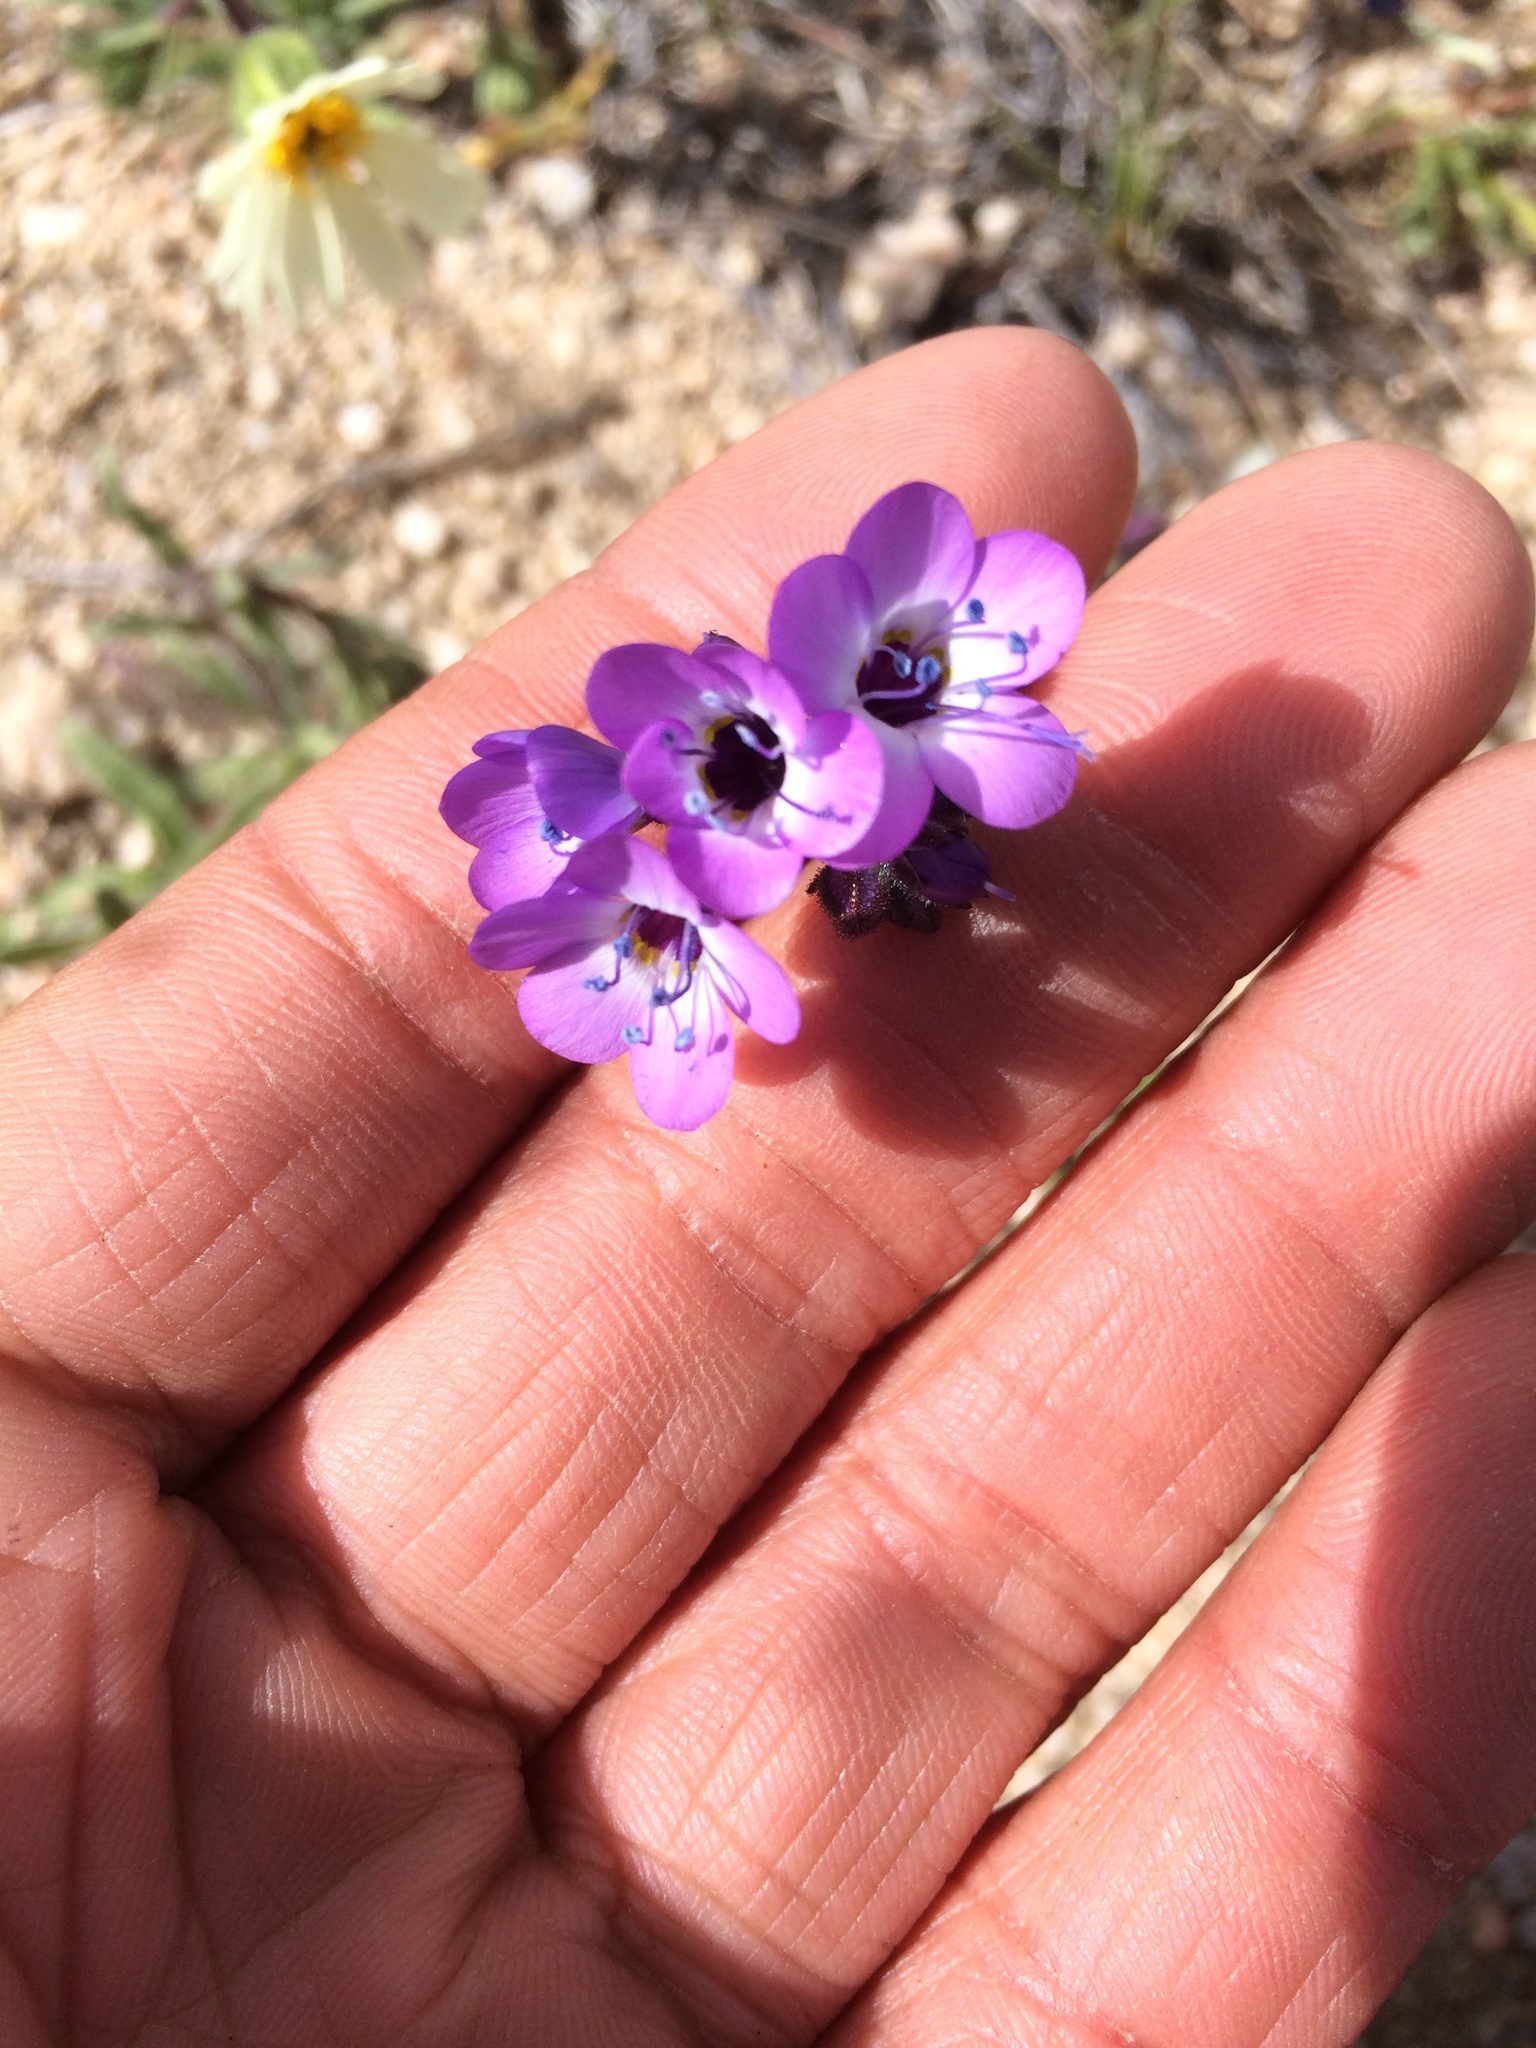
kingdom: Plantae
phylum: Tracheophyta
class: Magnoliopsida
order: Ericales
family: Polemoniaceae
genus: Gilia
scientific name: Gilia brecciarum
